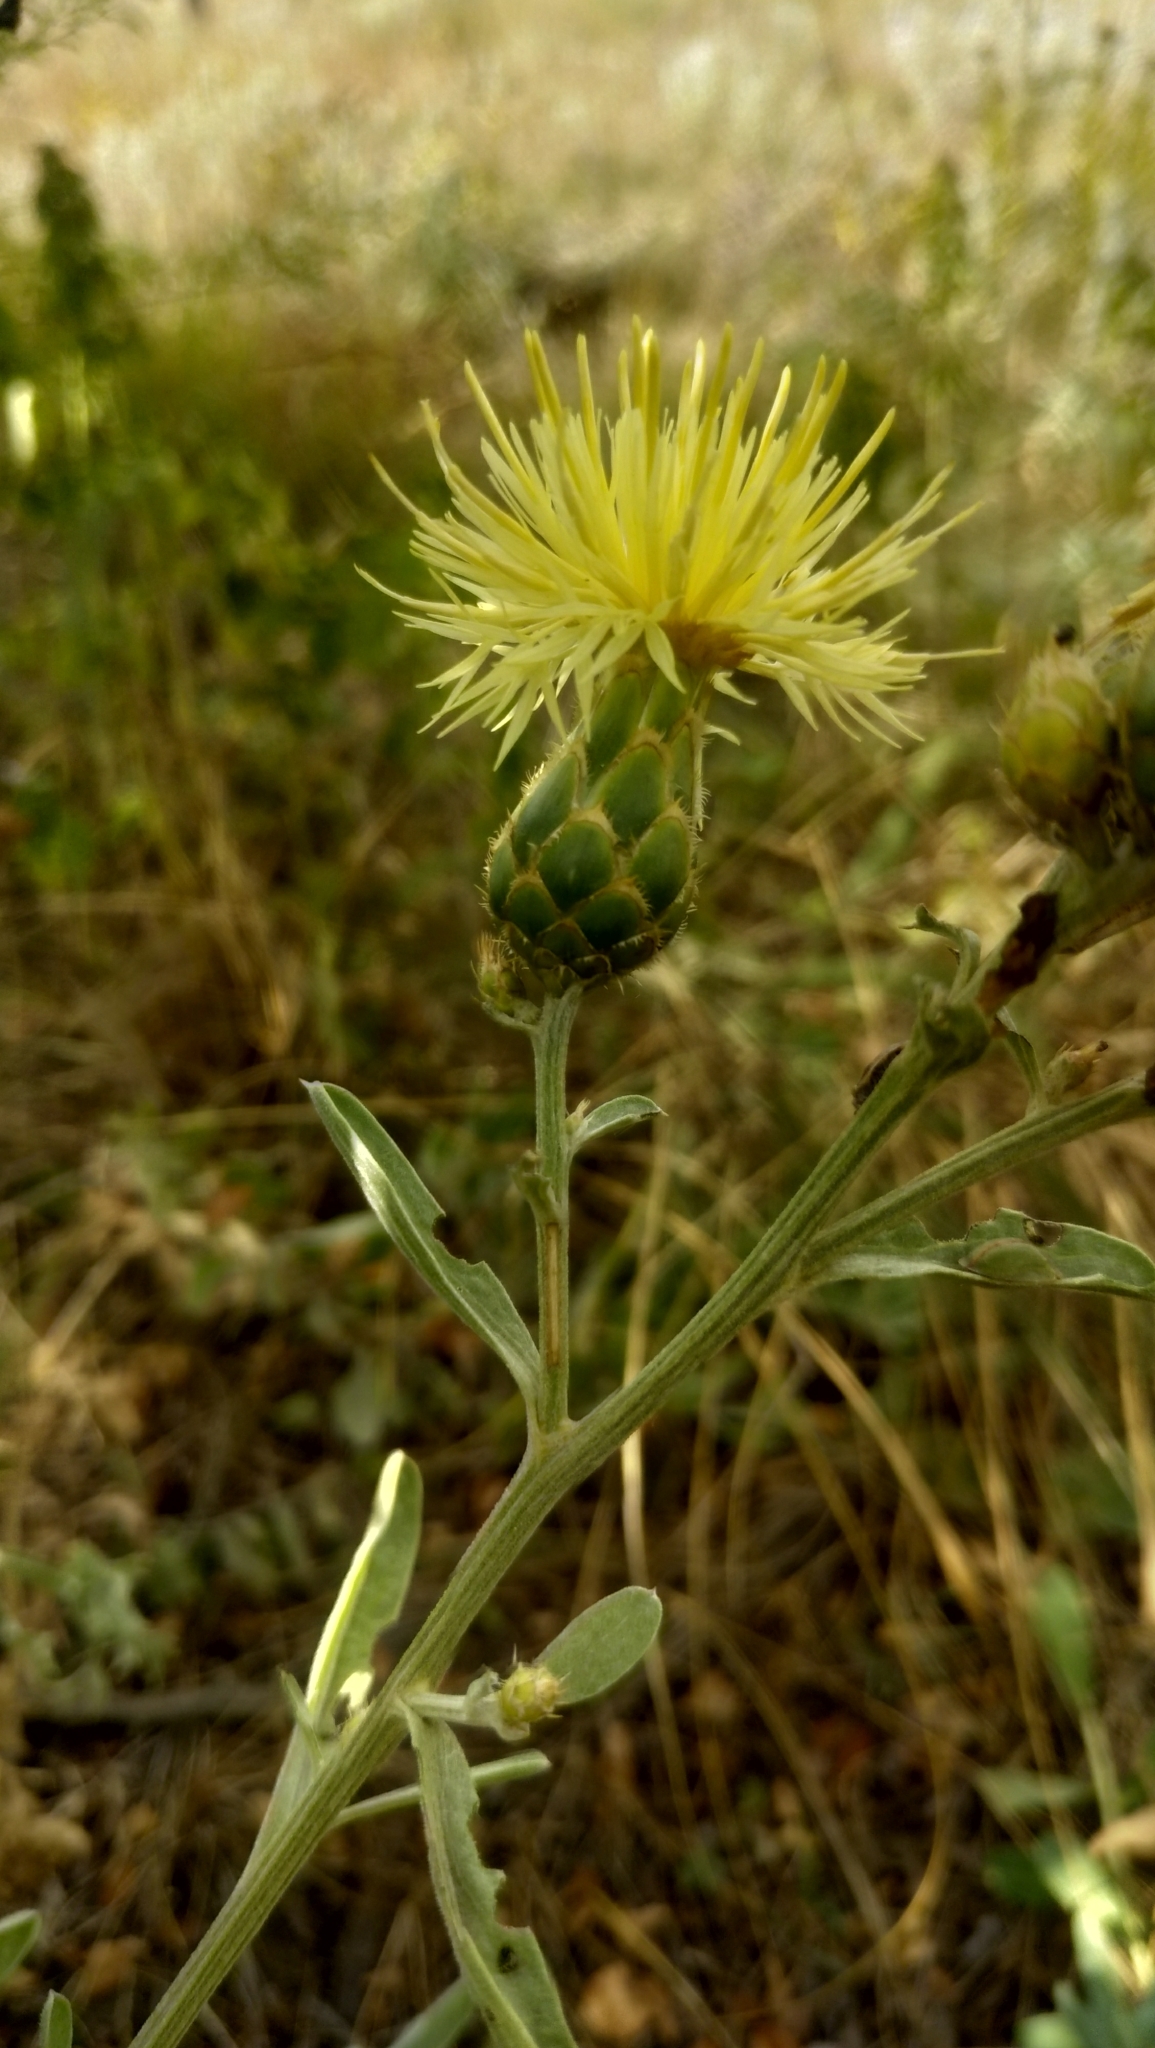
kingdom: Plantae
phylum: Tracheophyta
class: Magnoliopsida
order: Asterales
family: Asteraceae
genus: Centaurea
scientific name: Centaurea salonitana
